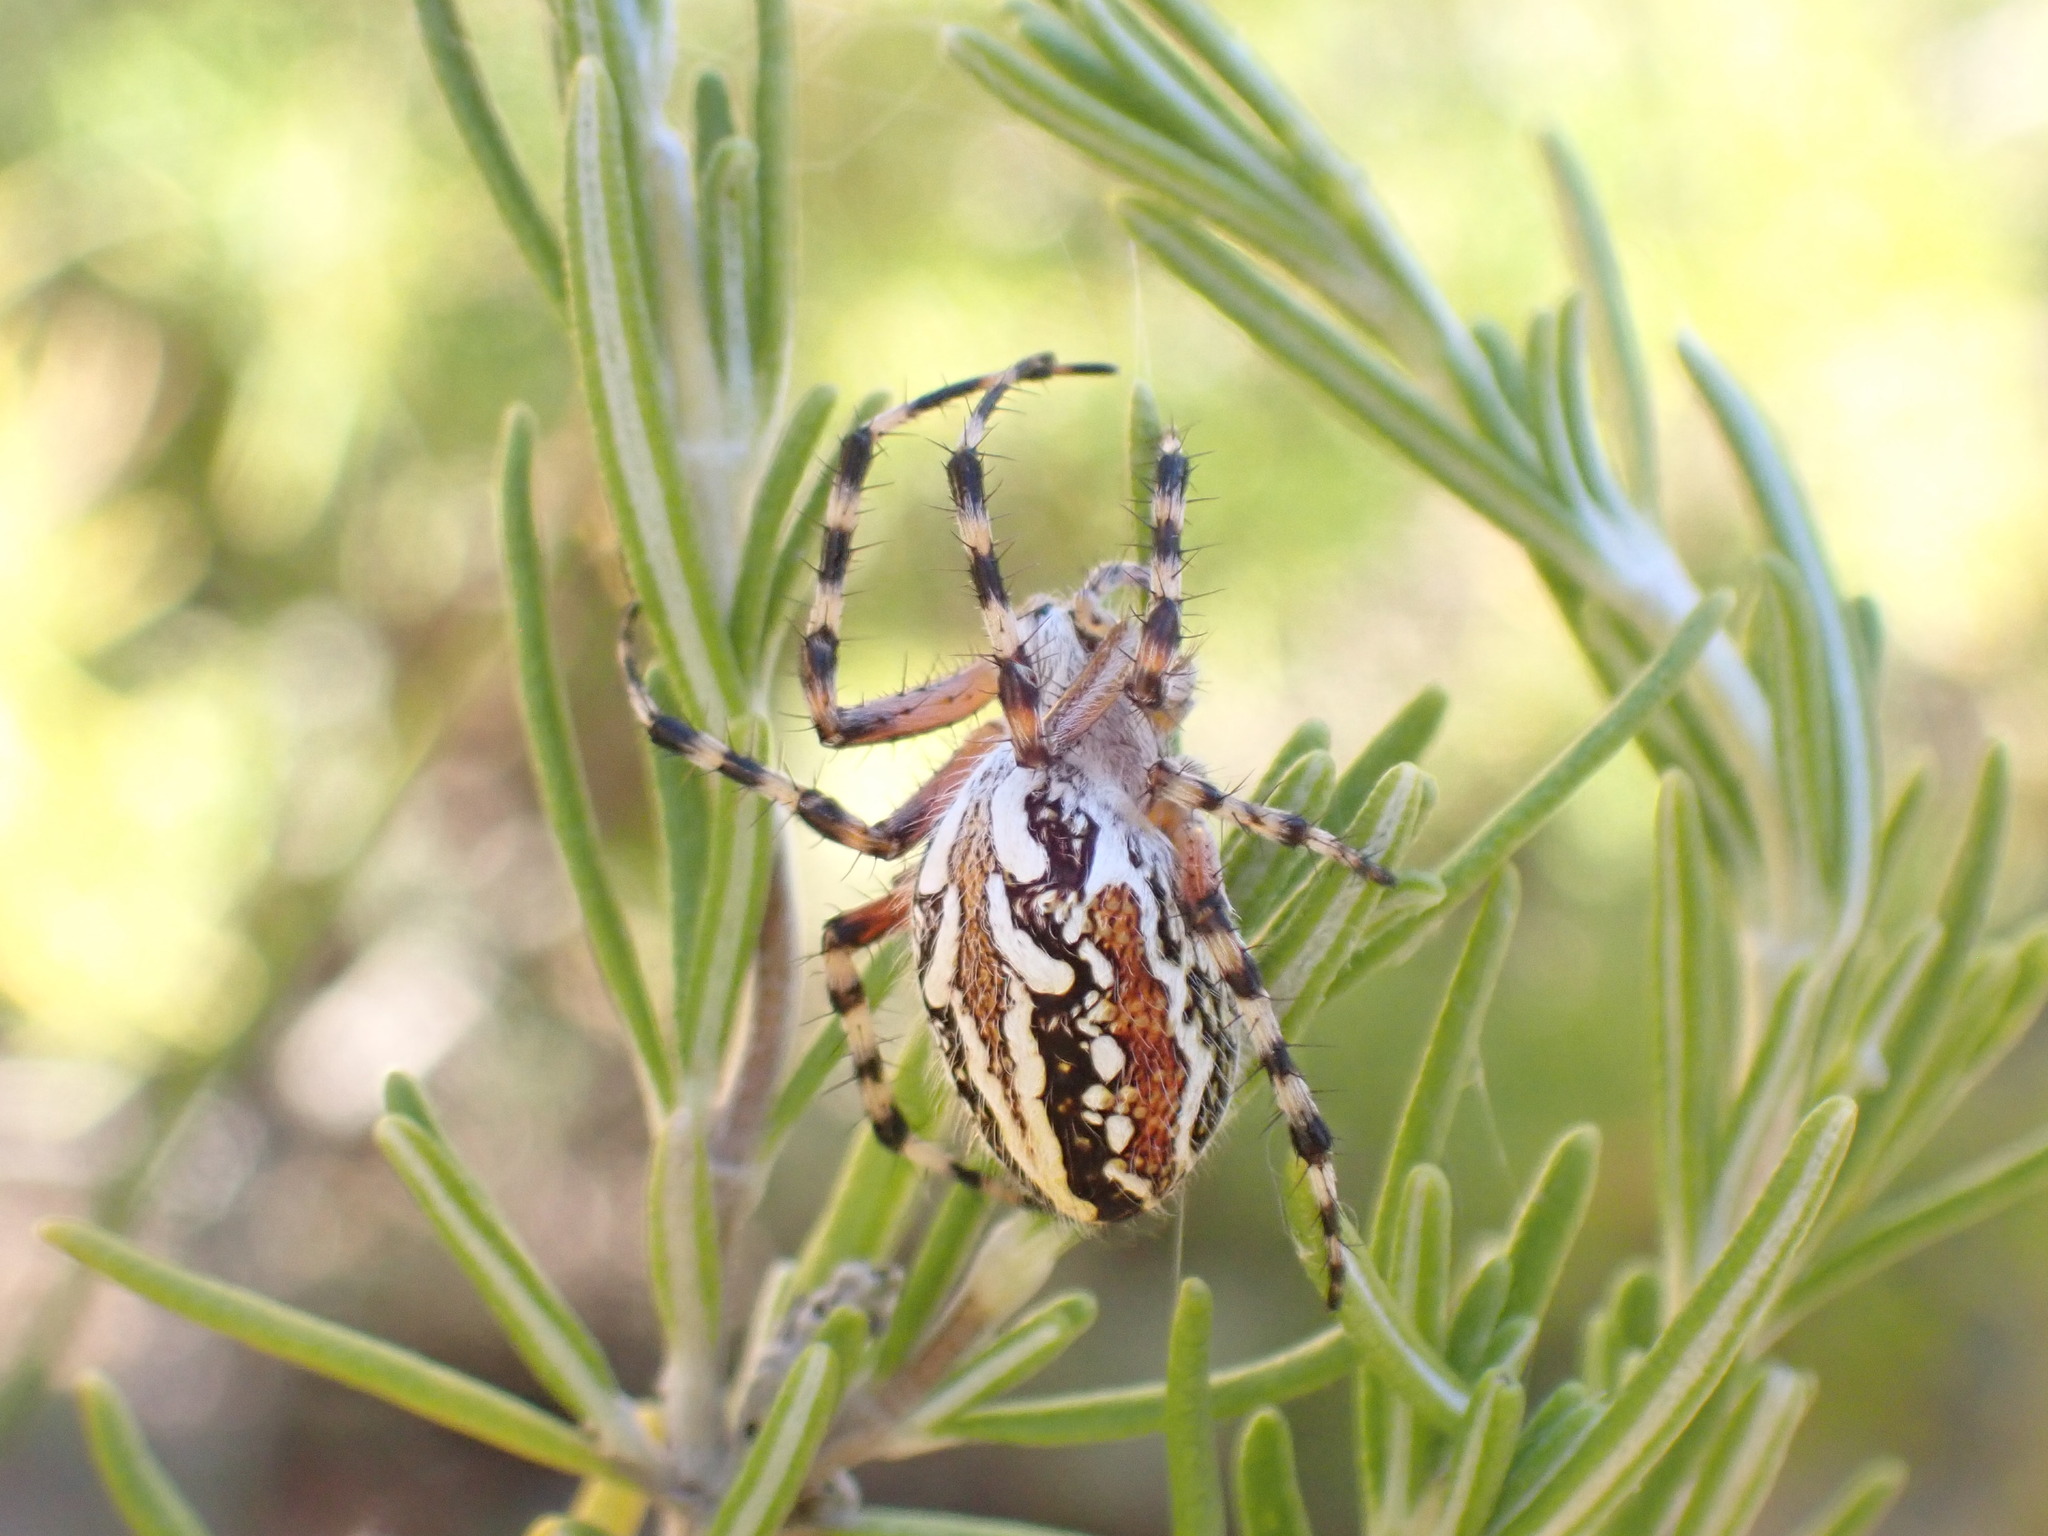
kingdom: Animalia
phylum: Arthropoda
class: Arachnida
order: Araneae
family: Araneidae
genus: Aculepeira
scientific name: Aculepeira armida
